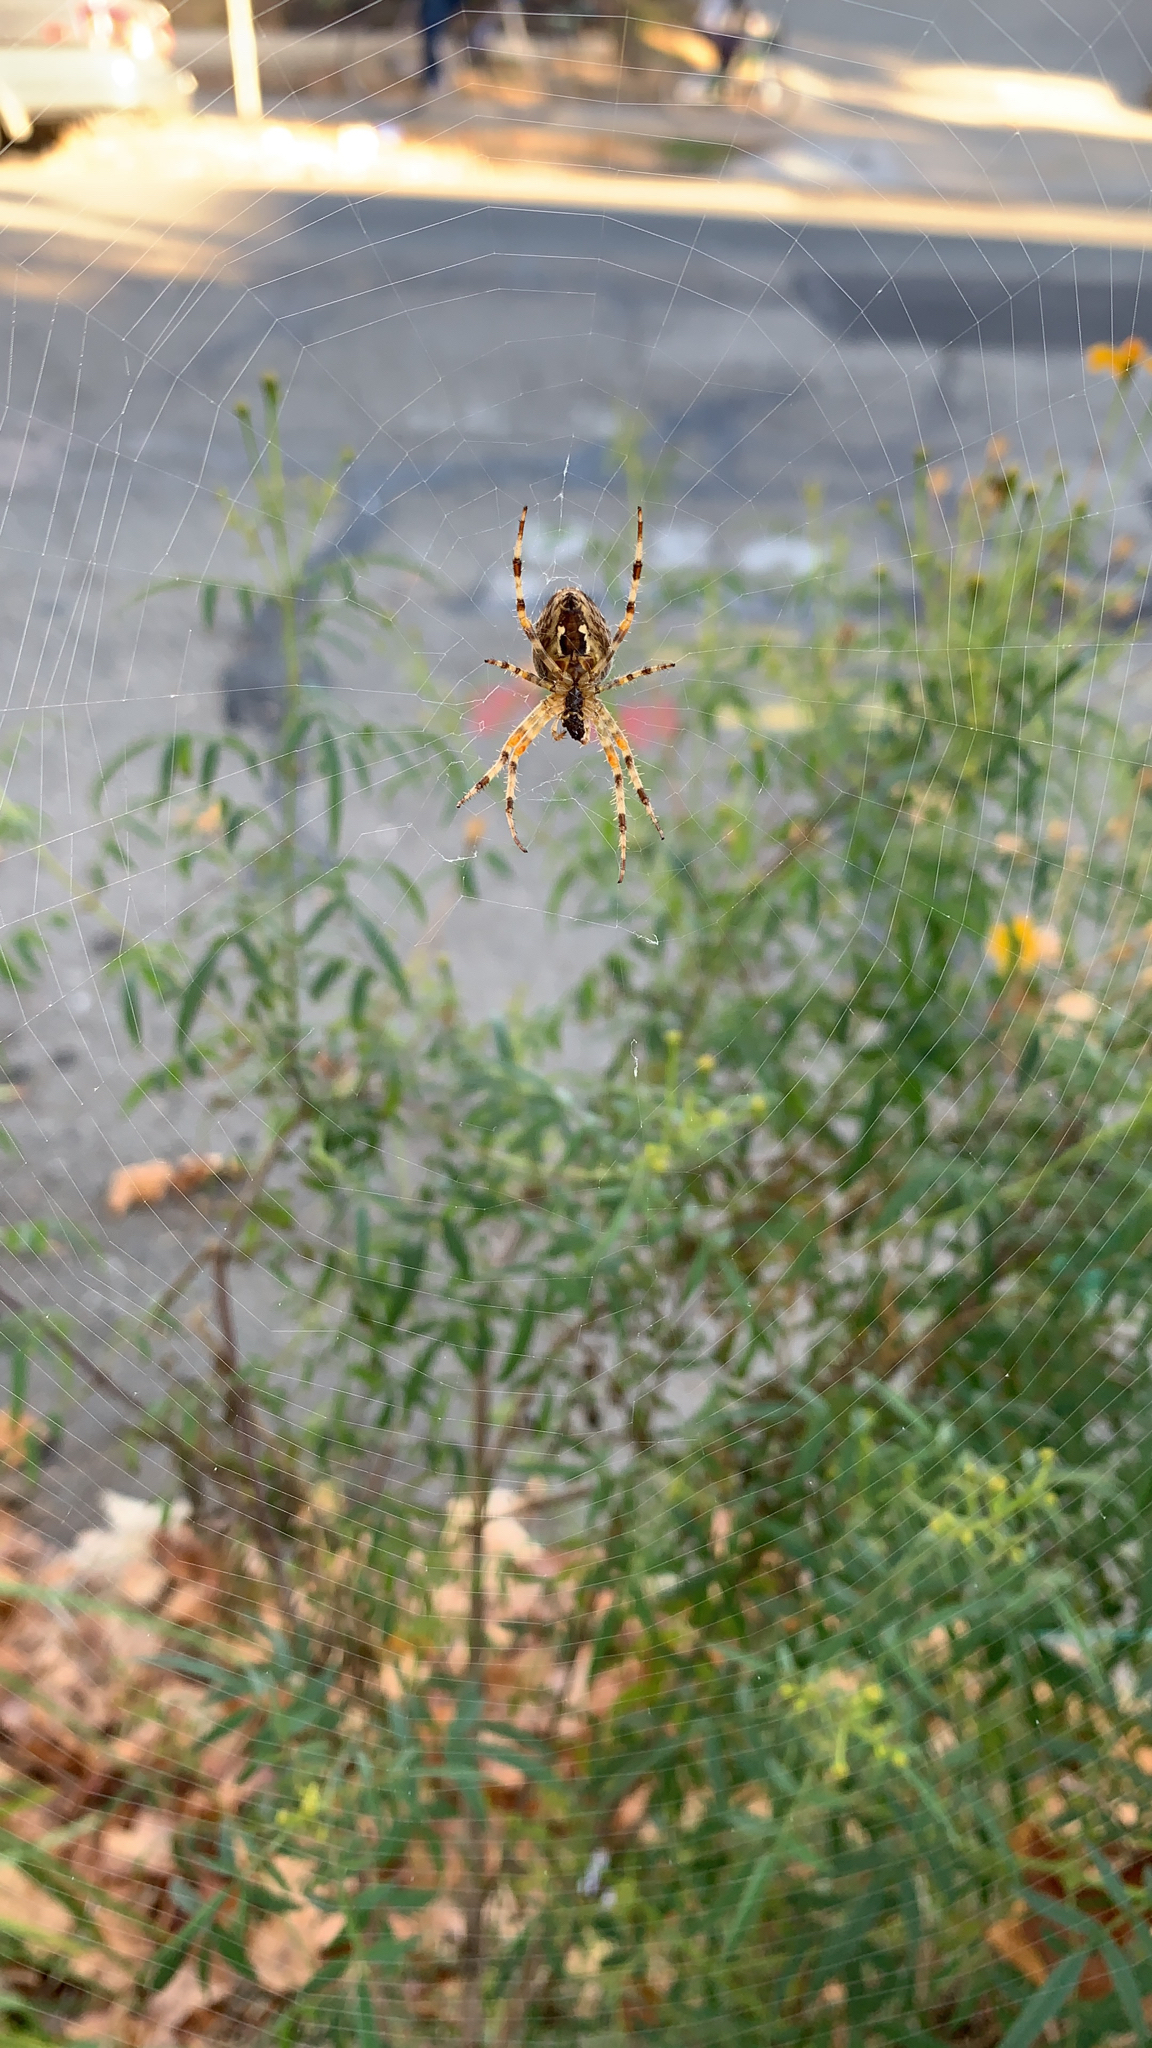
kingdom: Animalia
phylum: Arthropoda
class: Arachnida
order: Araneae
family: Araneidae
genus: Araneus
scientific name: Araneus diadematus
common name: Cross orbweaver
